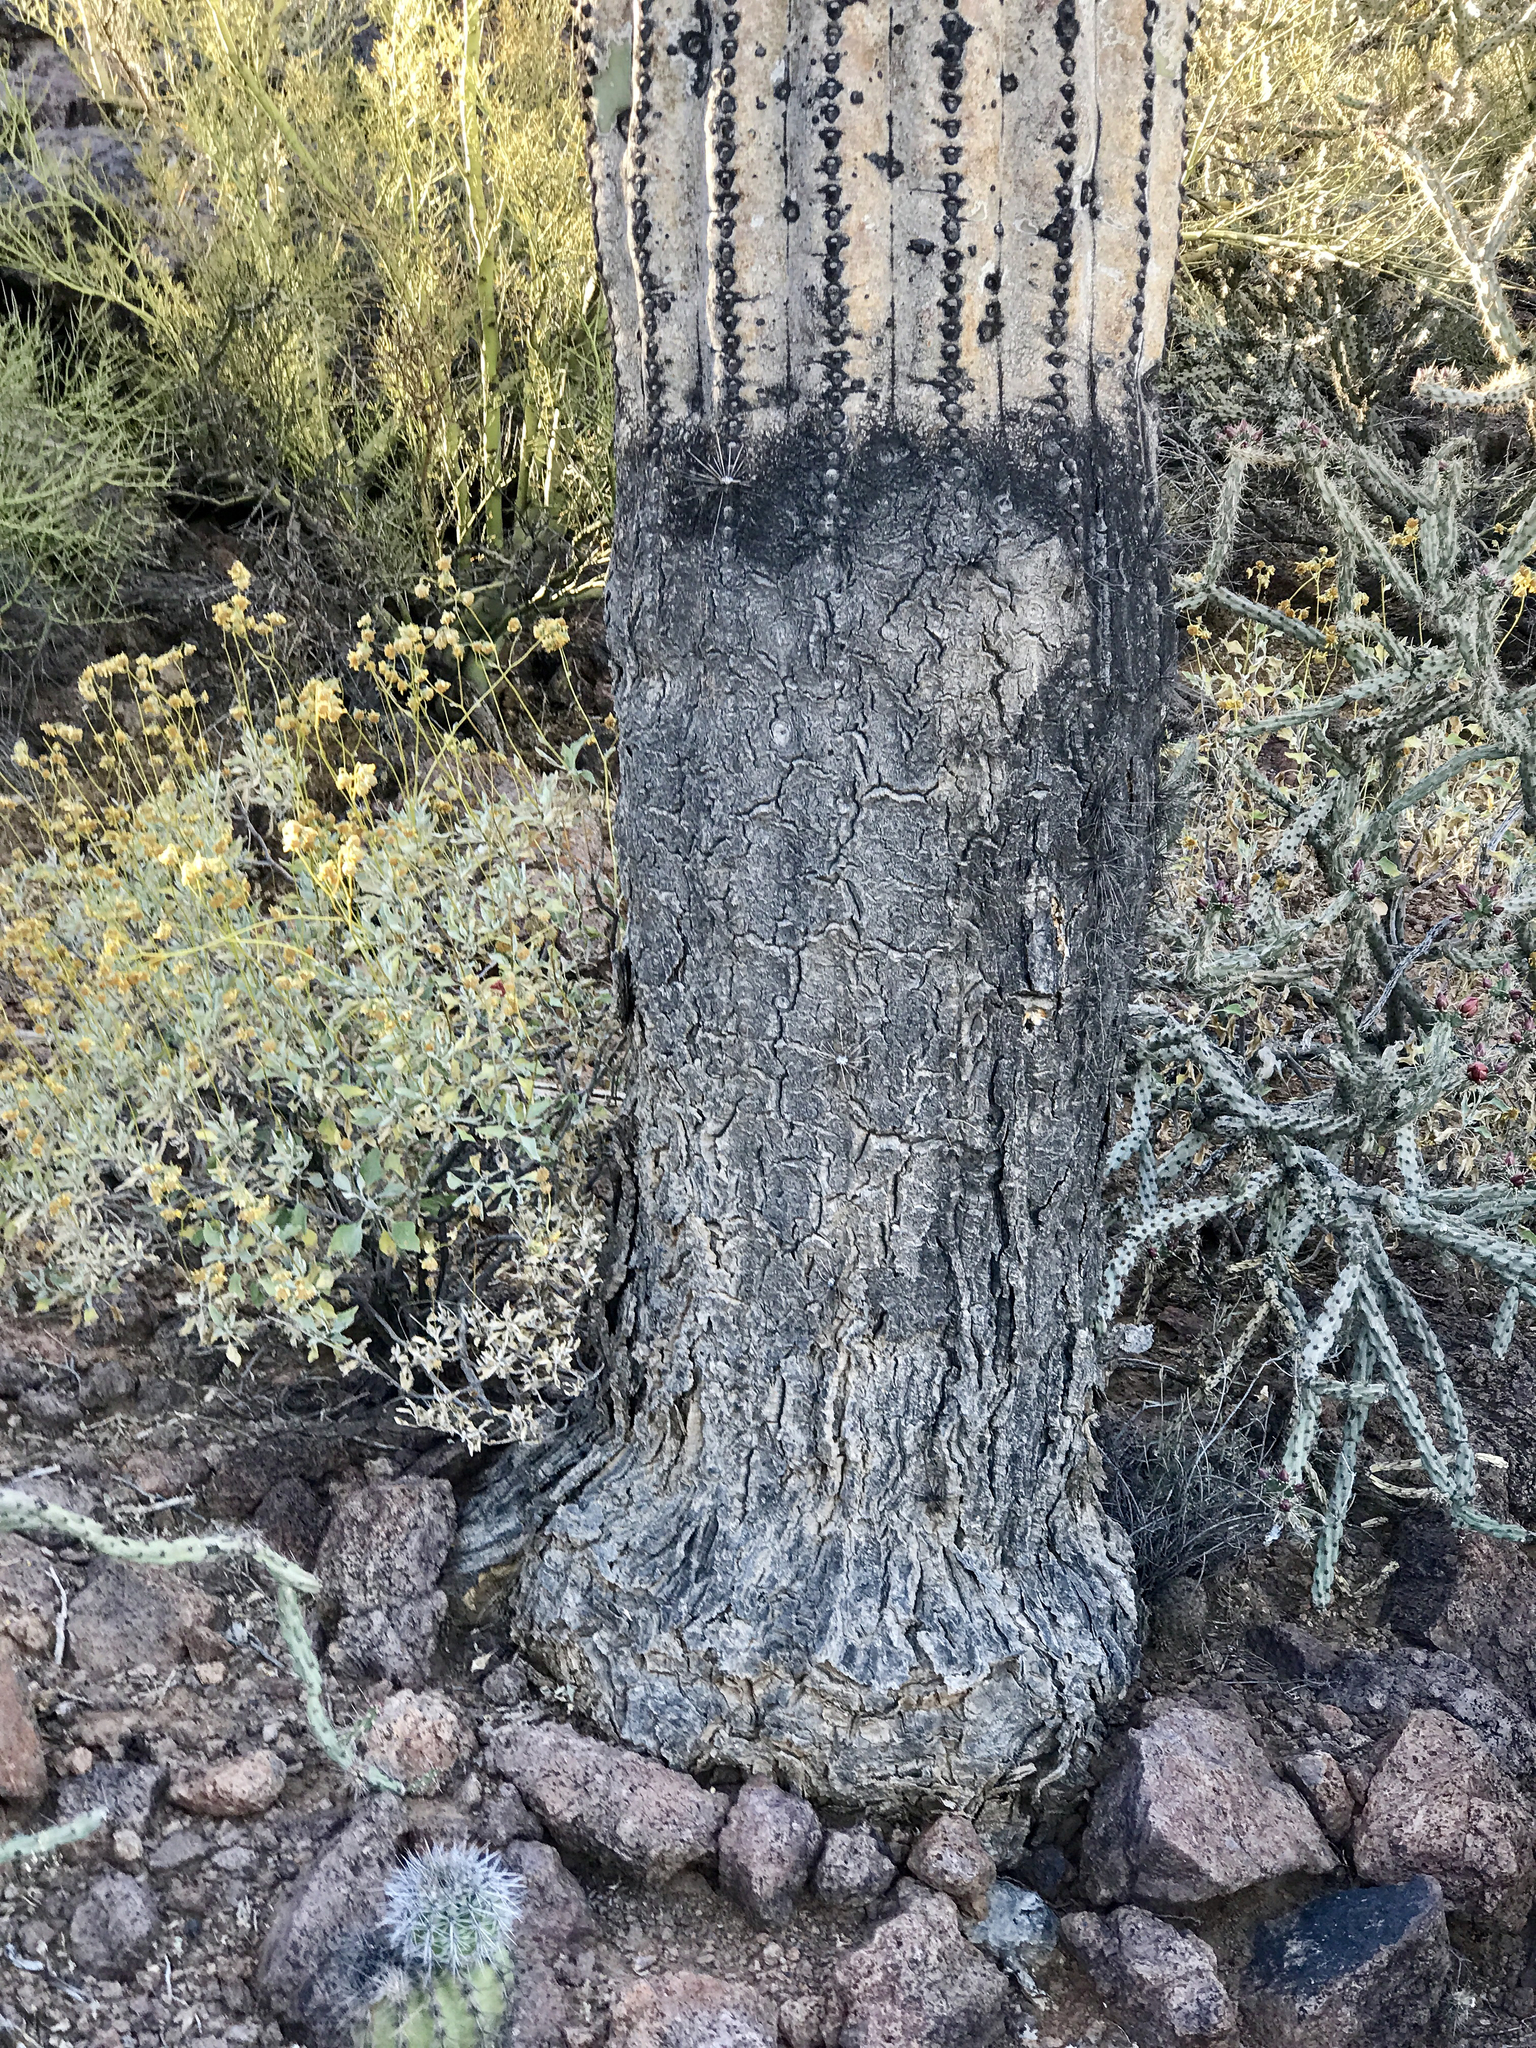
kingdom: Plantae
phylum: Tracheophyta
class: Magnoliopsida
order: Caryophyllales
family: Cactaceae
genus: Carnegiea
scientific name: Carnegiea gigantea
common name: Saguaro
